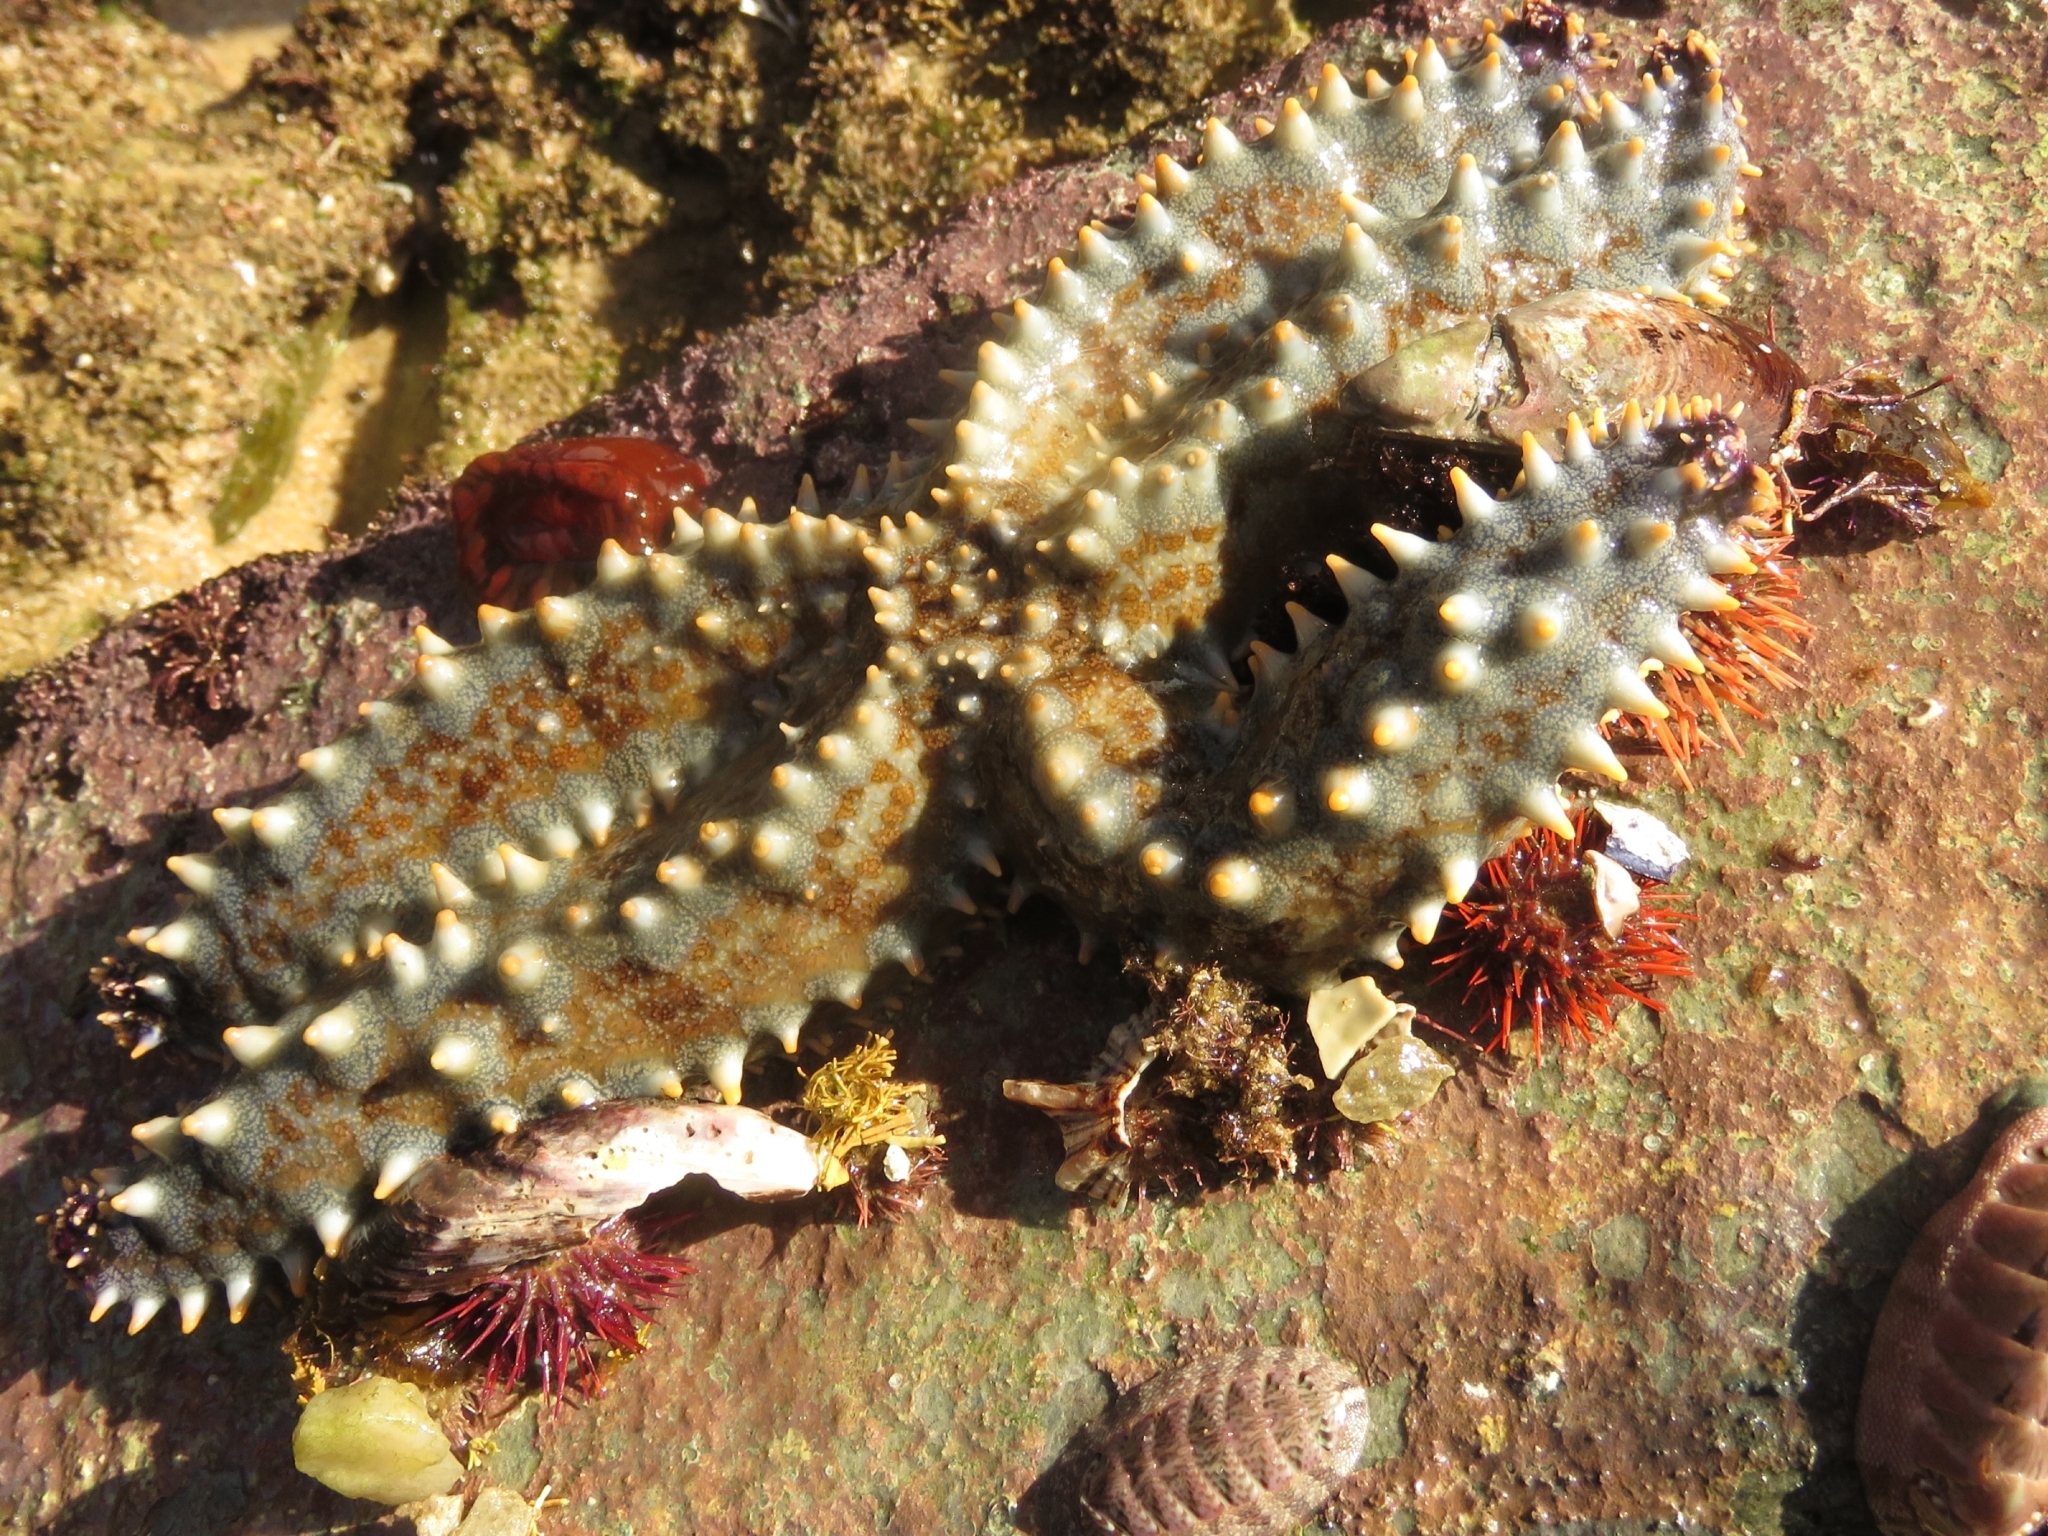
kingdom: Animalia
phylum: Echinodermata
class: Asteroidea
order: Forcipulatida
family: Asteriidae
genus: Marthasterias
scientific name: Marthasterias africana
